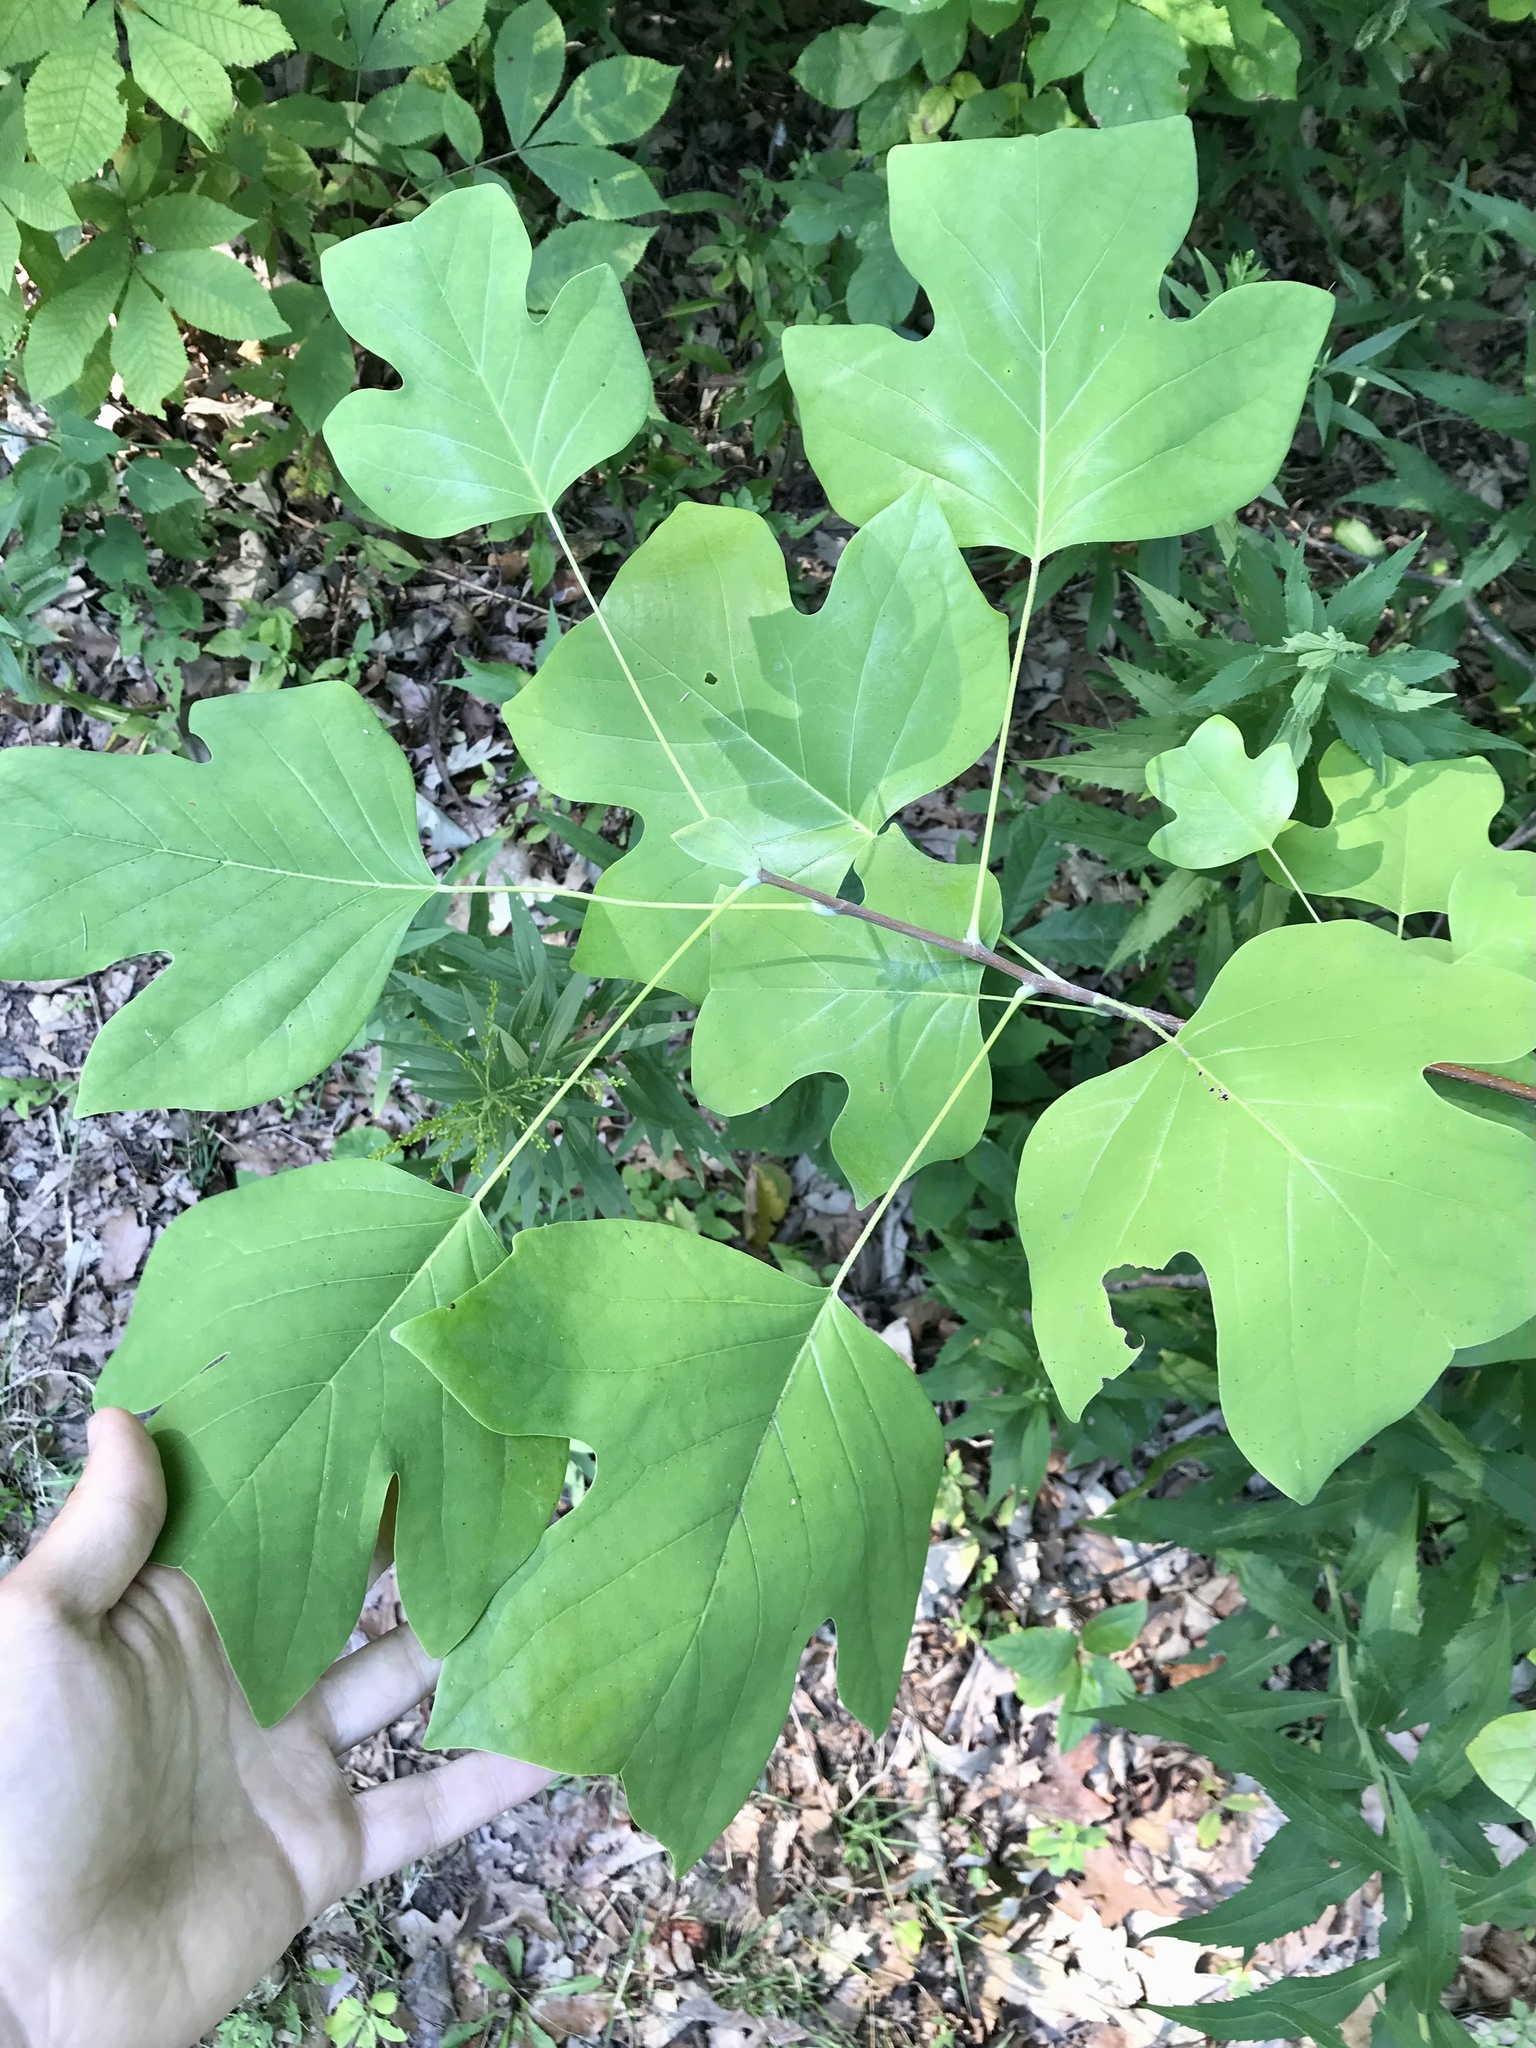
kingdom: Plantae
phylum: Tracheophyta
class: Magnoliopsida
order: Magnoliales
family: Magnoliaceae
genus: Liriodendron
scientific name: Liriodendron tulipifera
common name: Tulip tree
